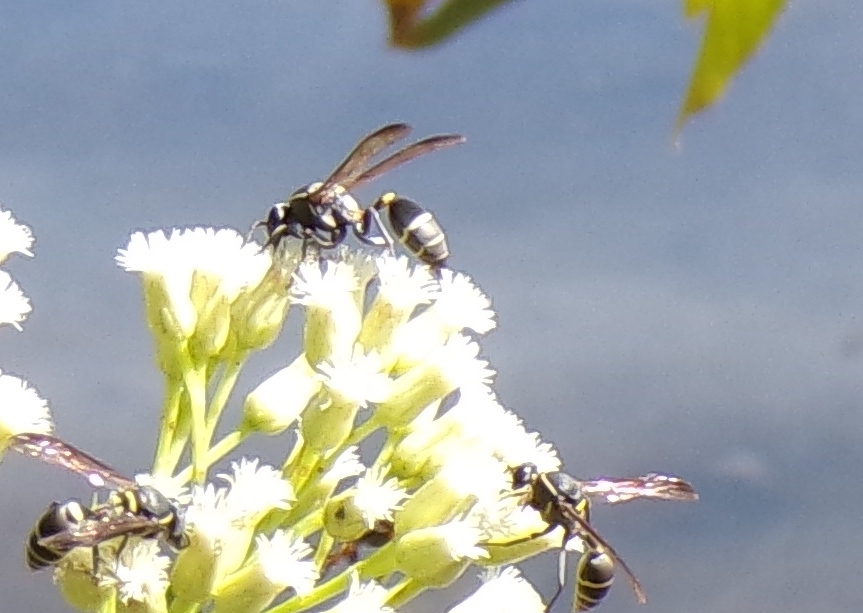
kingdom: Animalia
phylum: Arthropoda
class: Insecta
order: Hymenoptera
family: Eumenidae
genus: Polybia
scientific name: Polybia occidentalis
